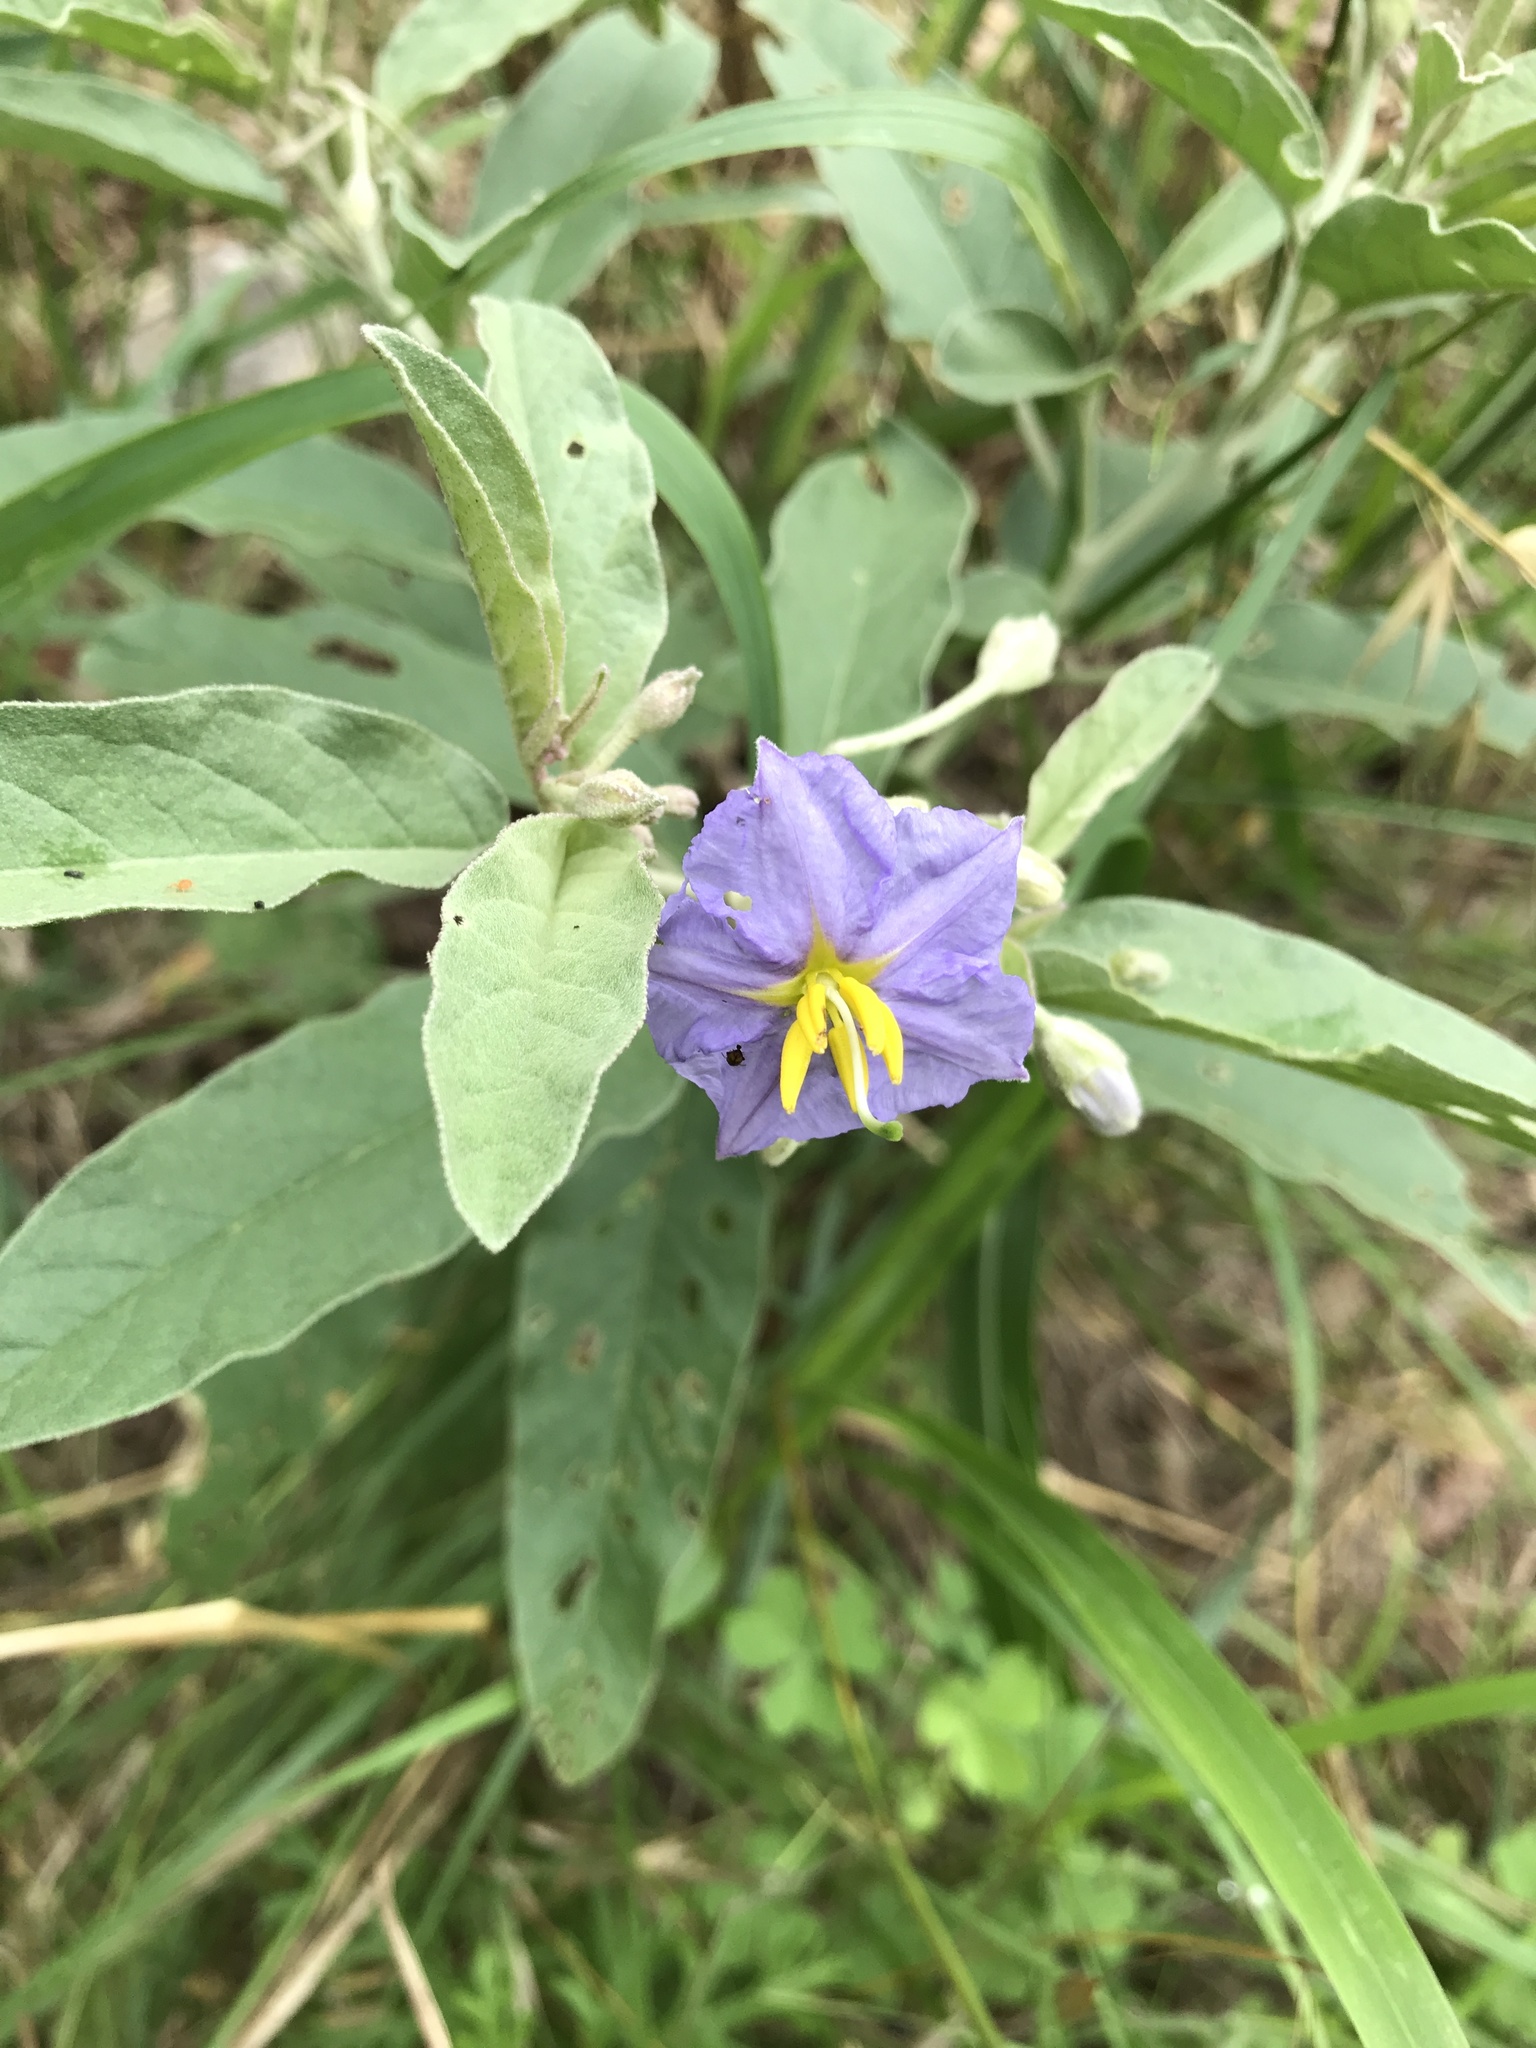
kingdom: Plantae
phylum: Tracheophyta
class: Magnoliopsida
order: Solanales
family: Solanaceae
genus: Solanum
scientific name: Solanum elaeagnifolium
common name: Silverleaf nightshade
